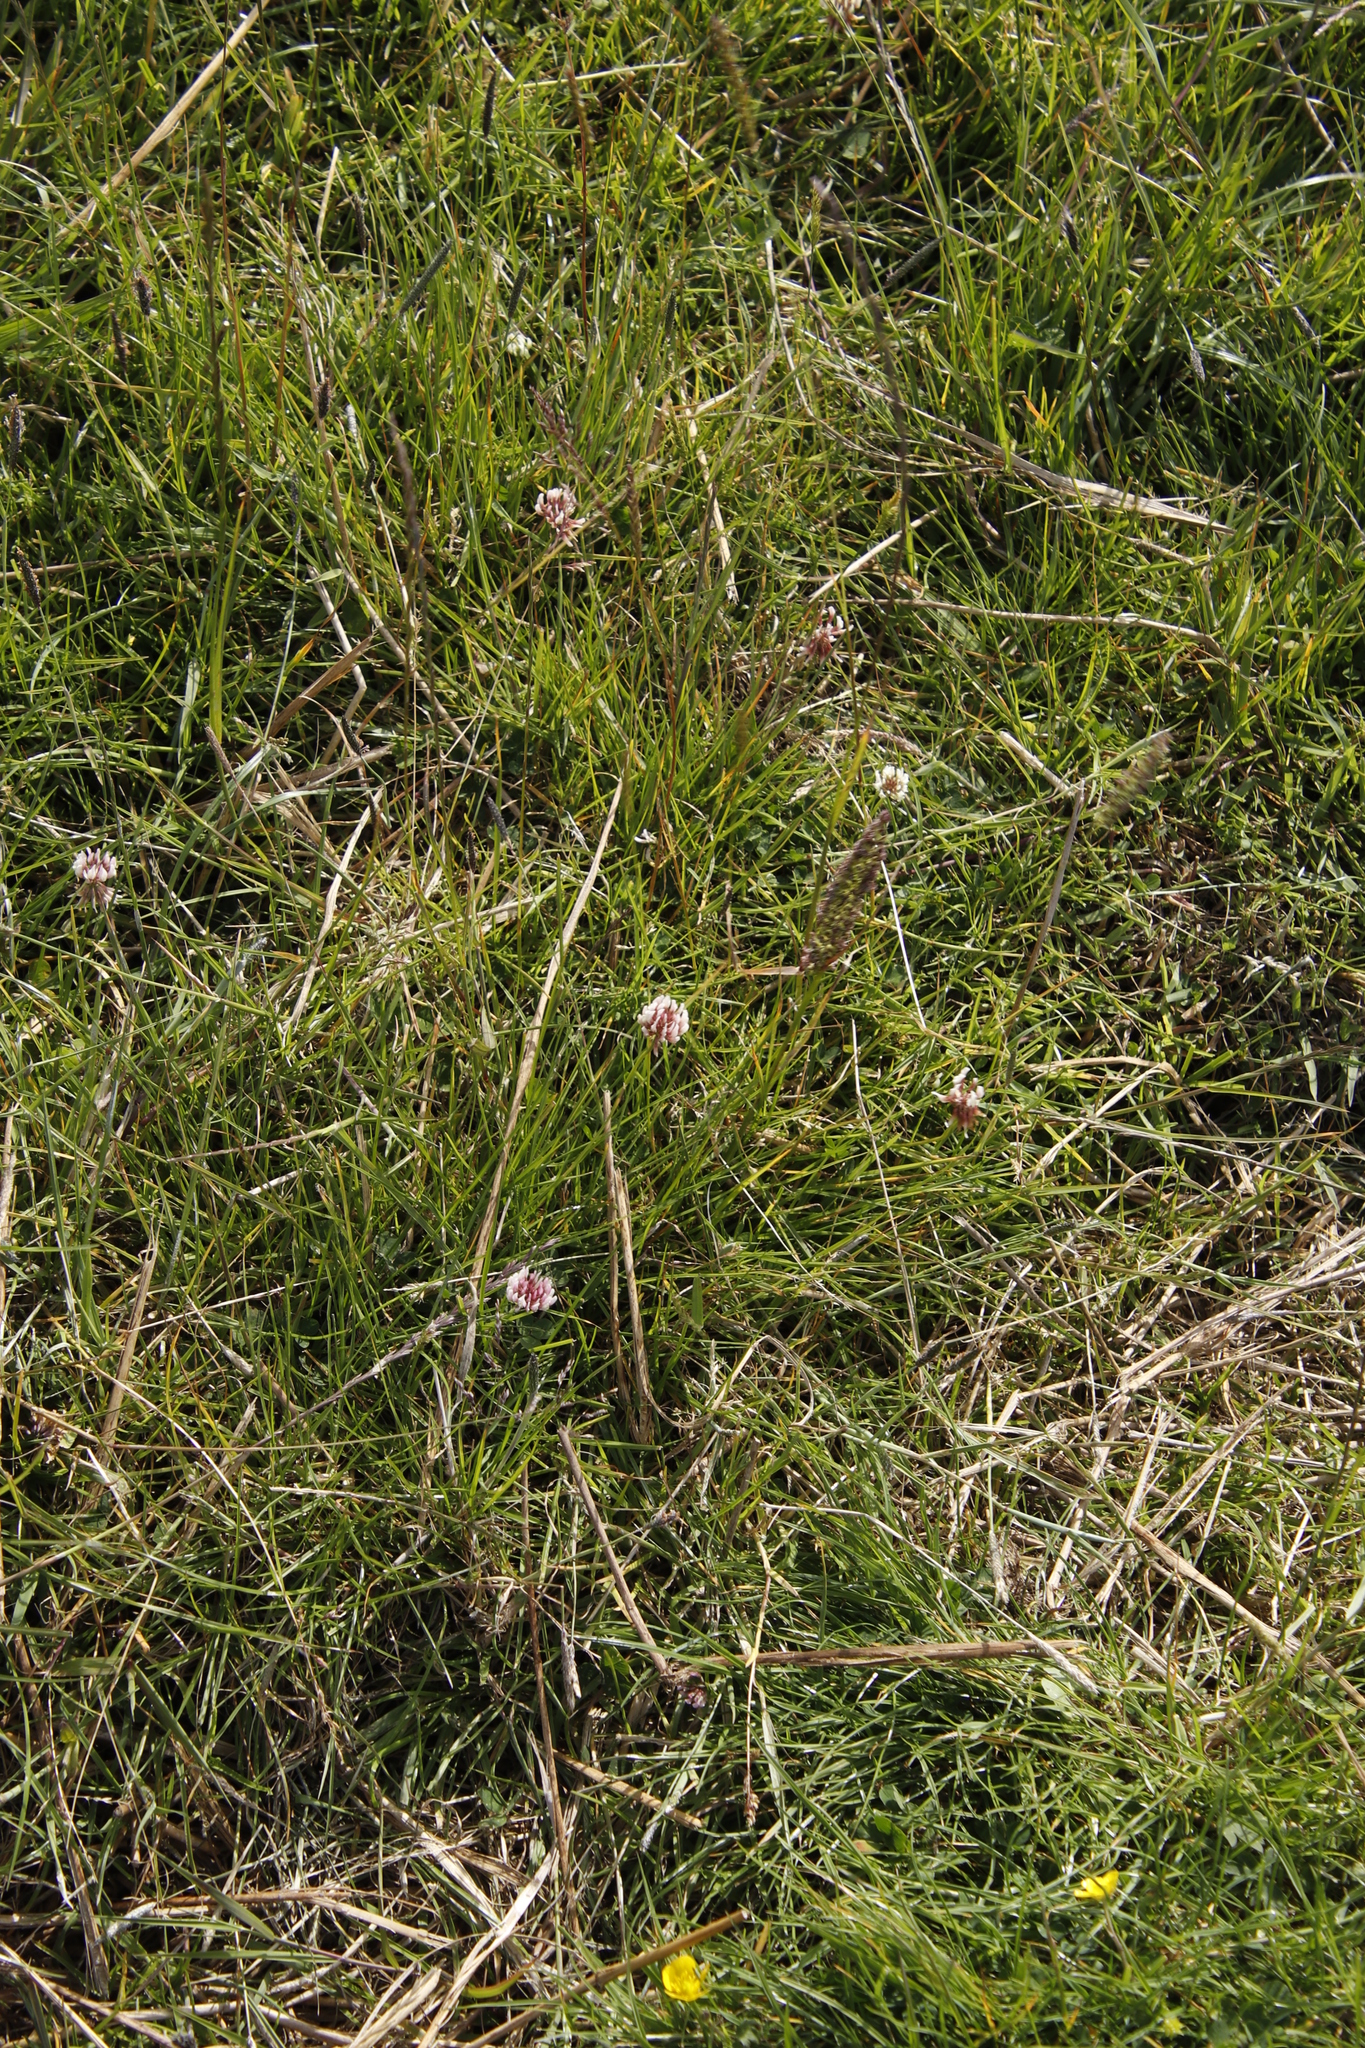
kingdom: Plantae
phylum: Tracheophyta
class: Magnoliopsida
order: Fabales
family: Fabaceae
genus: Trifolium
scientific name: Trifolium repens
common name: White clover
